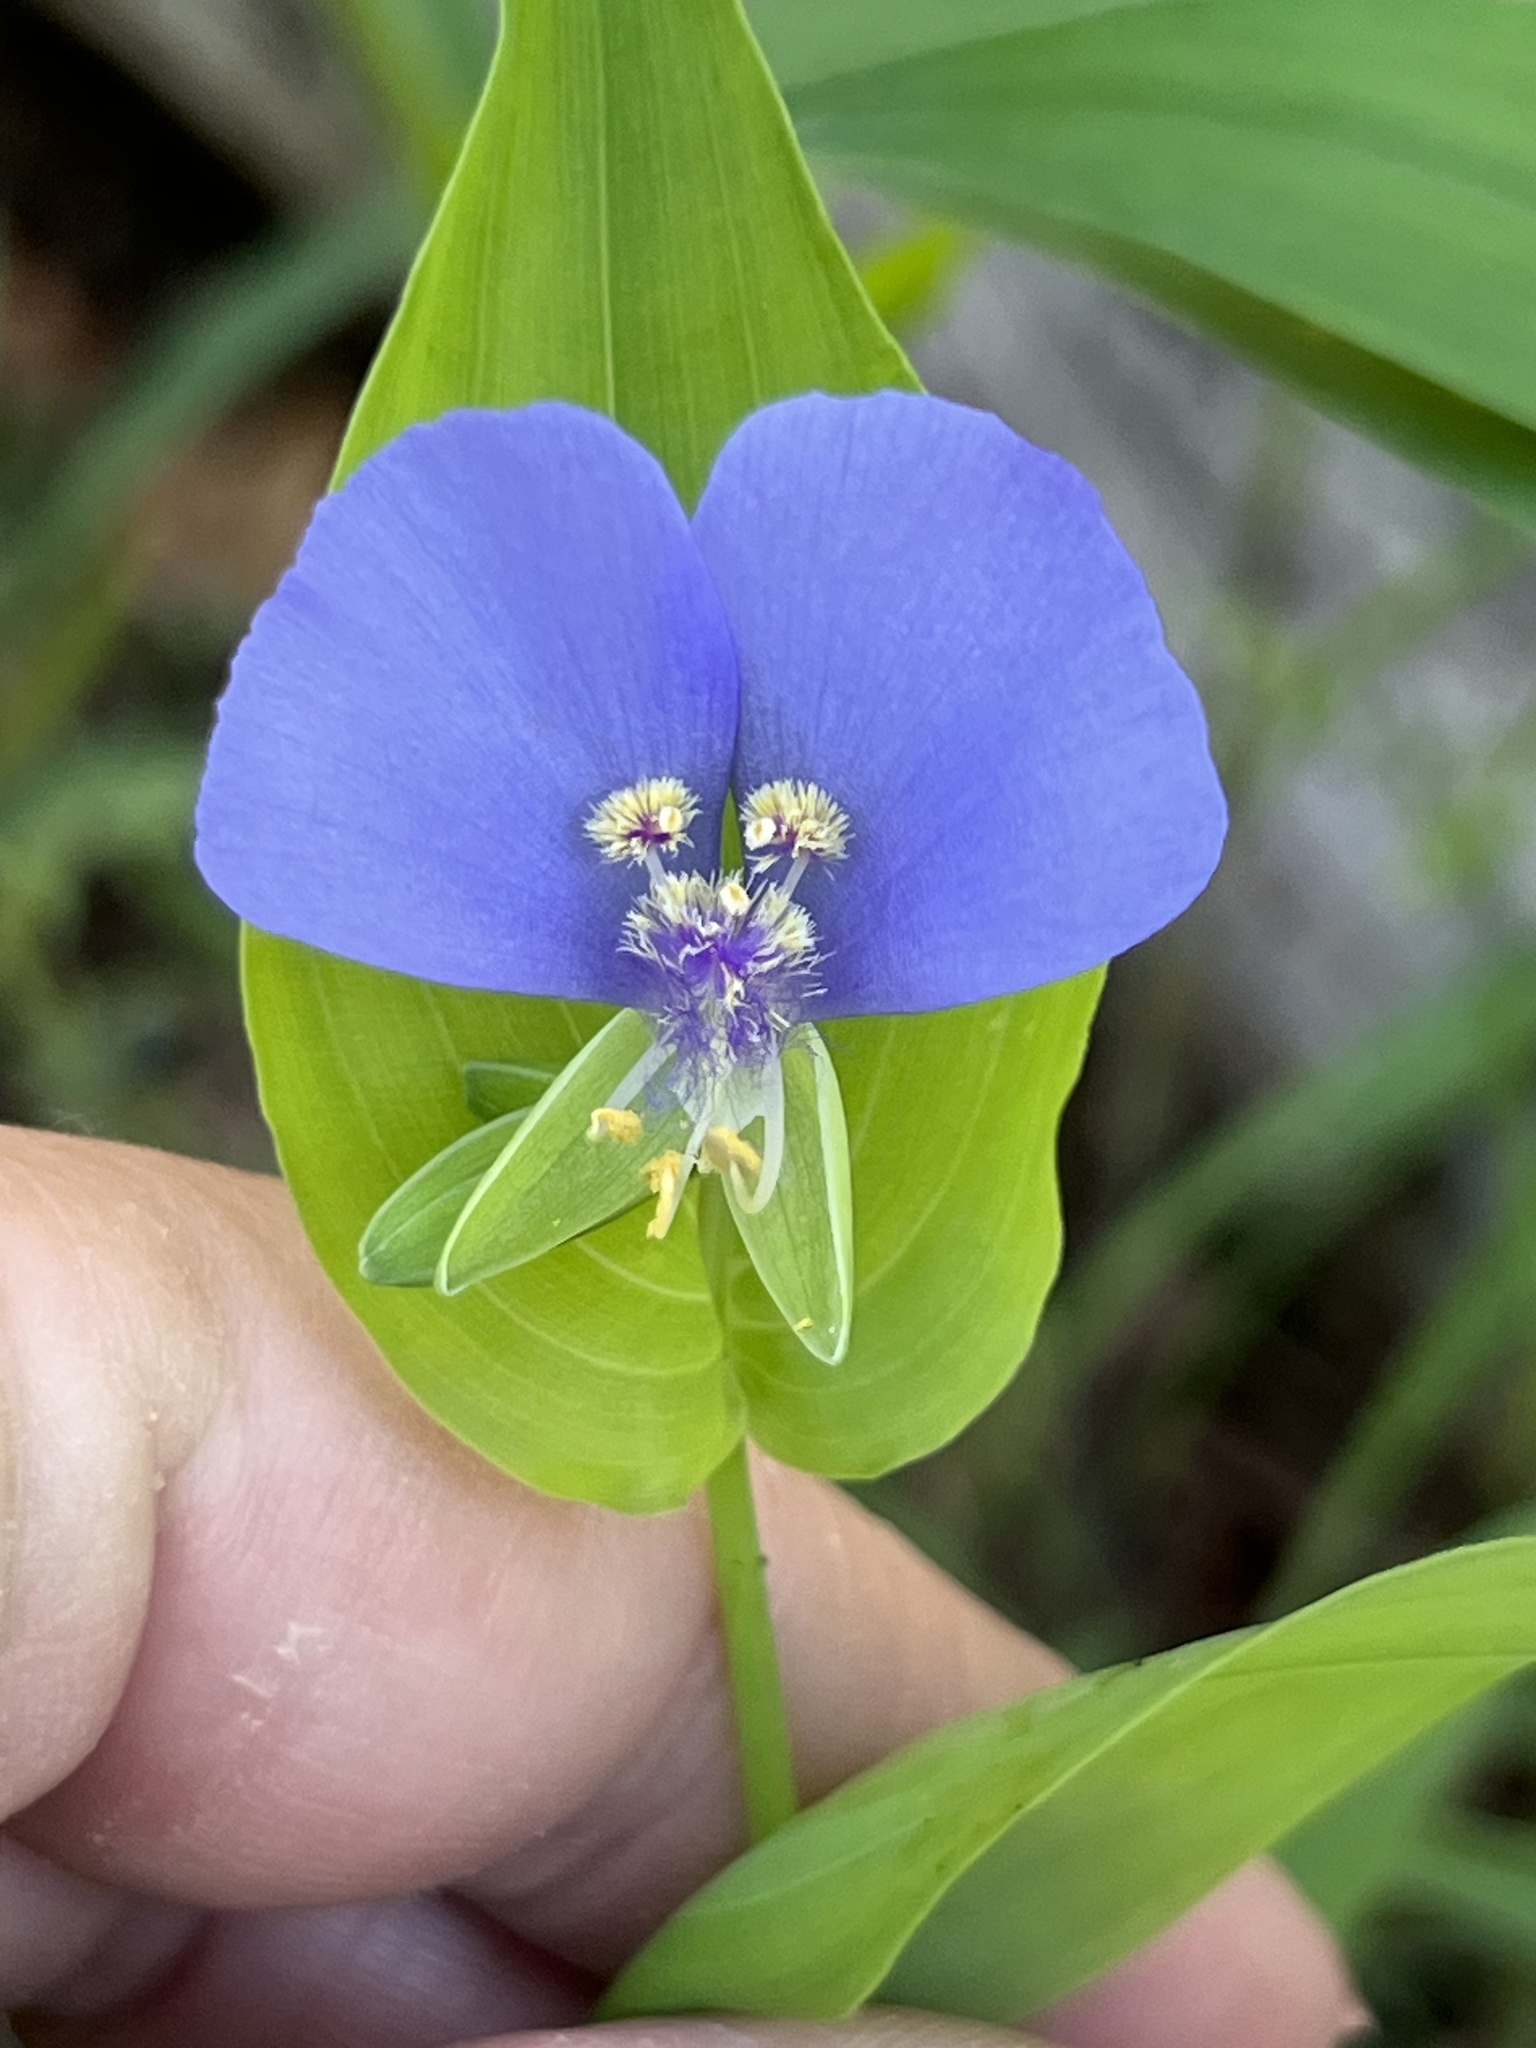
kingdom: Plantae
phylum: Tracheophyta
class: Liliopsida
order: Commelinales
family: Commelinaceae
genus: Tinantia
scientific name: Tinantia anomala
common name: False dayflower
